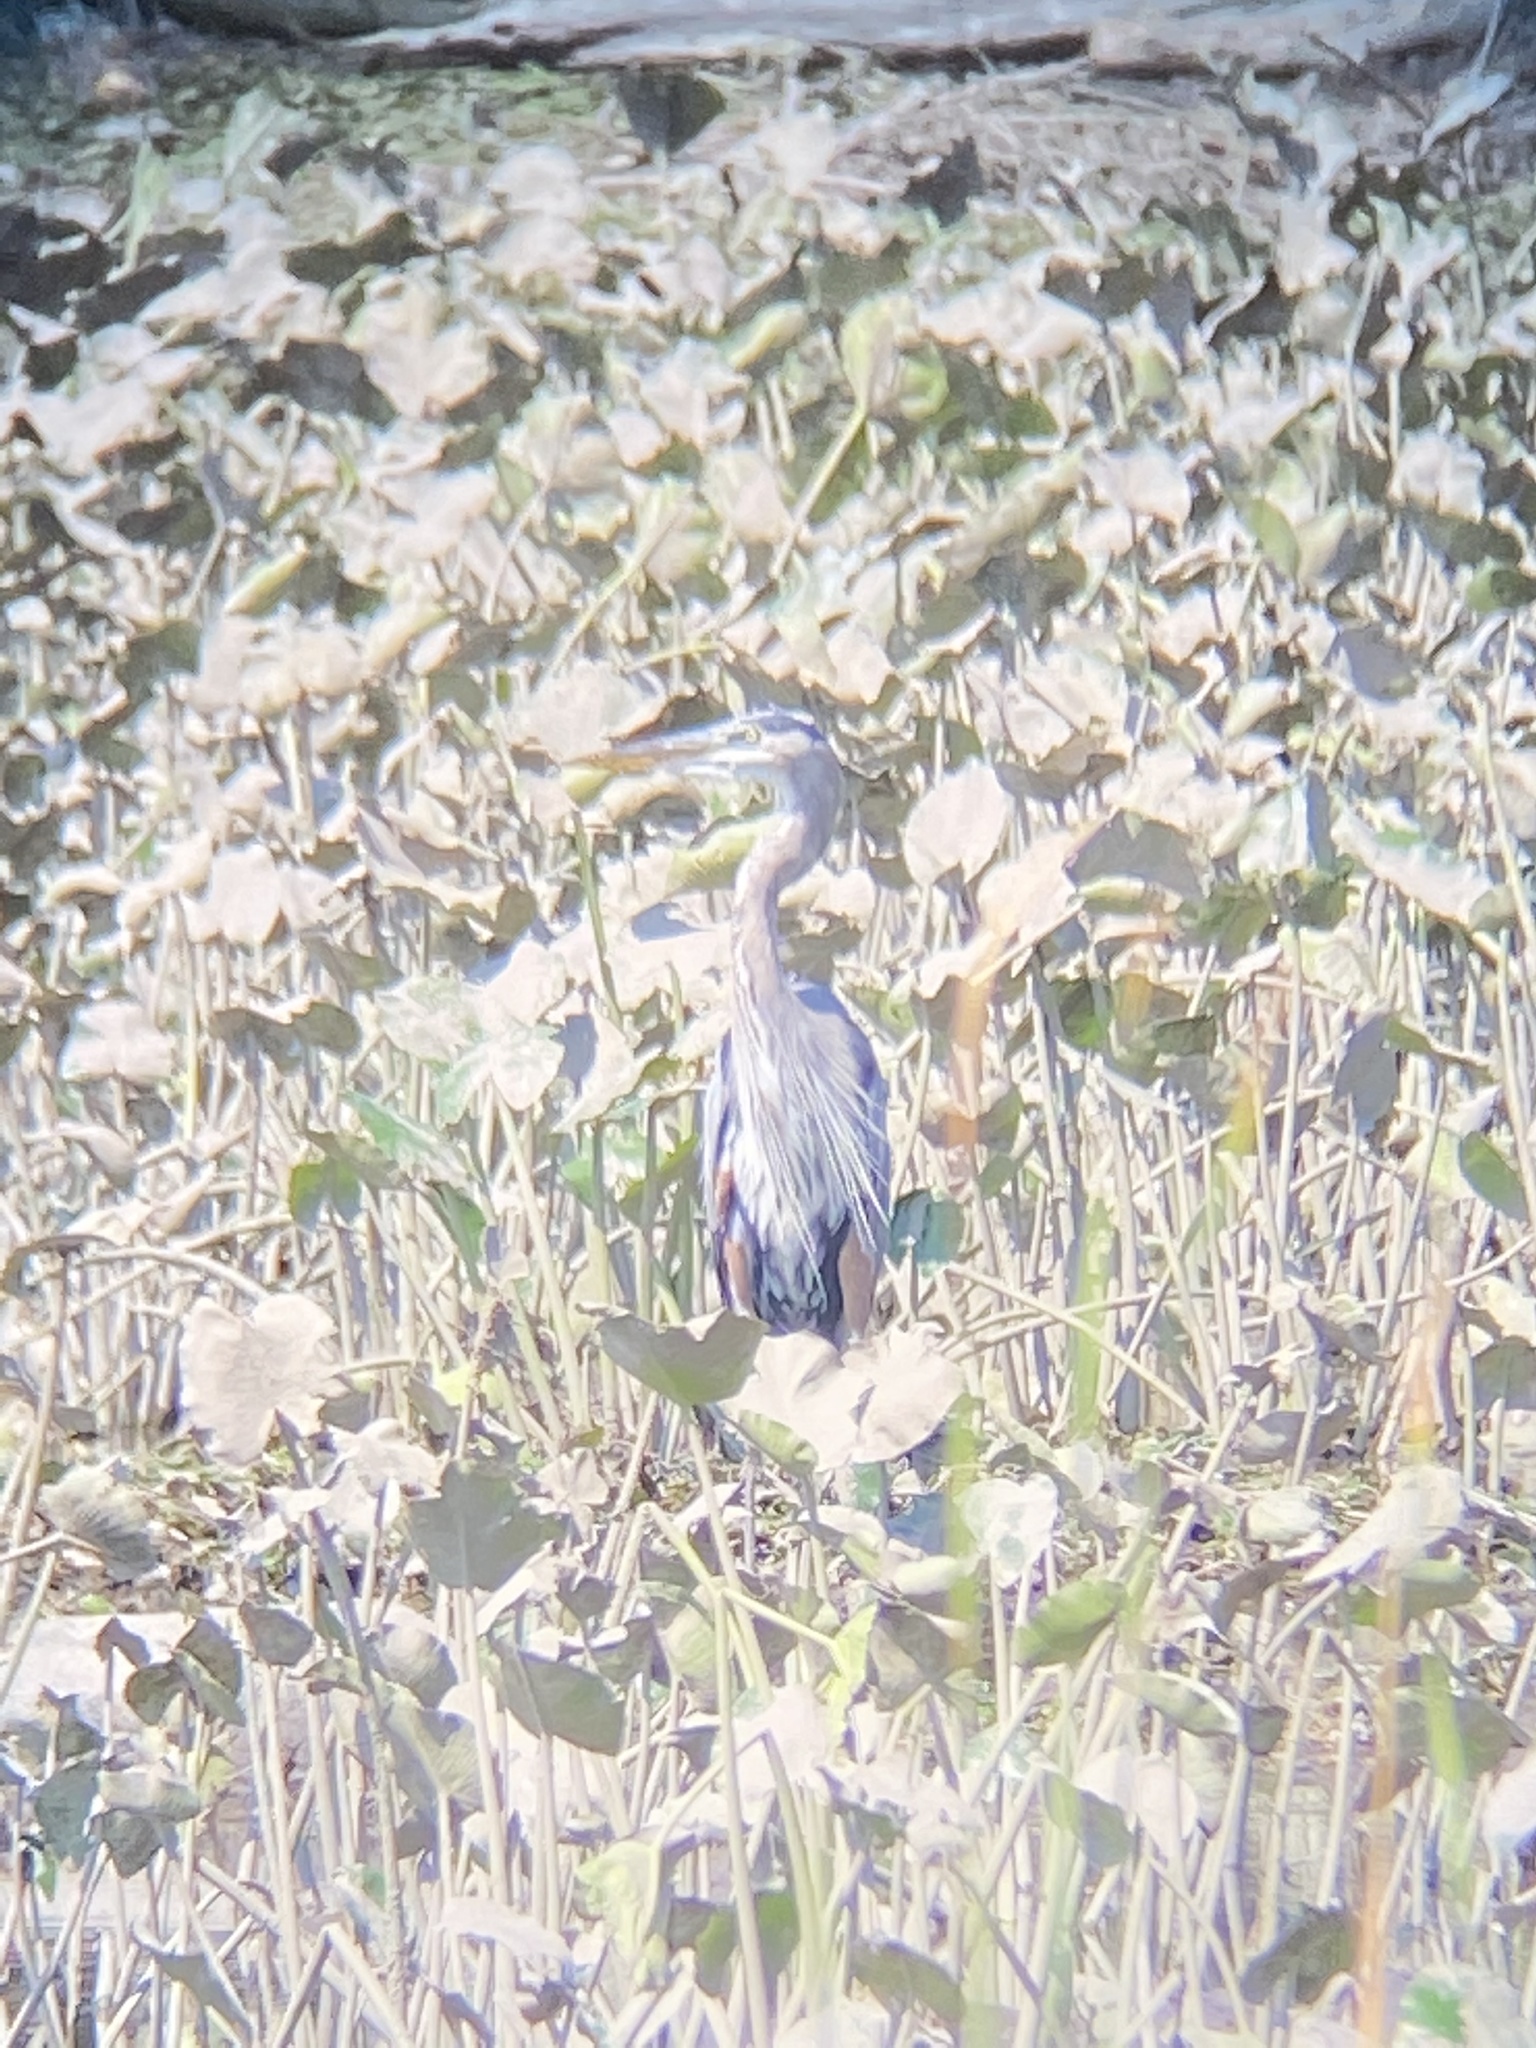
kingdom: Animalia
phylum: Chordata
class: Aves
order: Pelecaniformes
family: Ardeidae
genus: Ardea
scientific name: Ardea herodias
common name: Great blue heron
